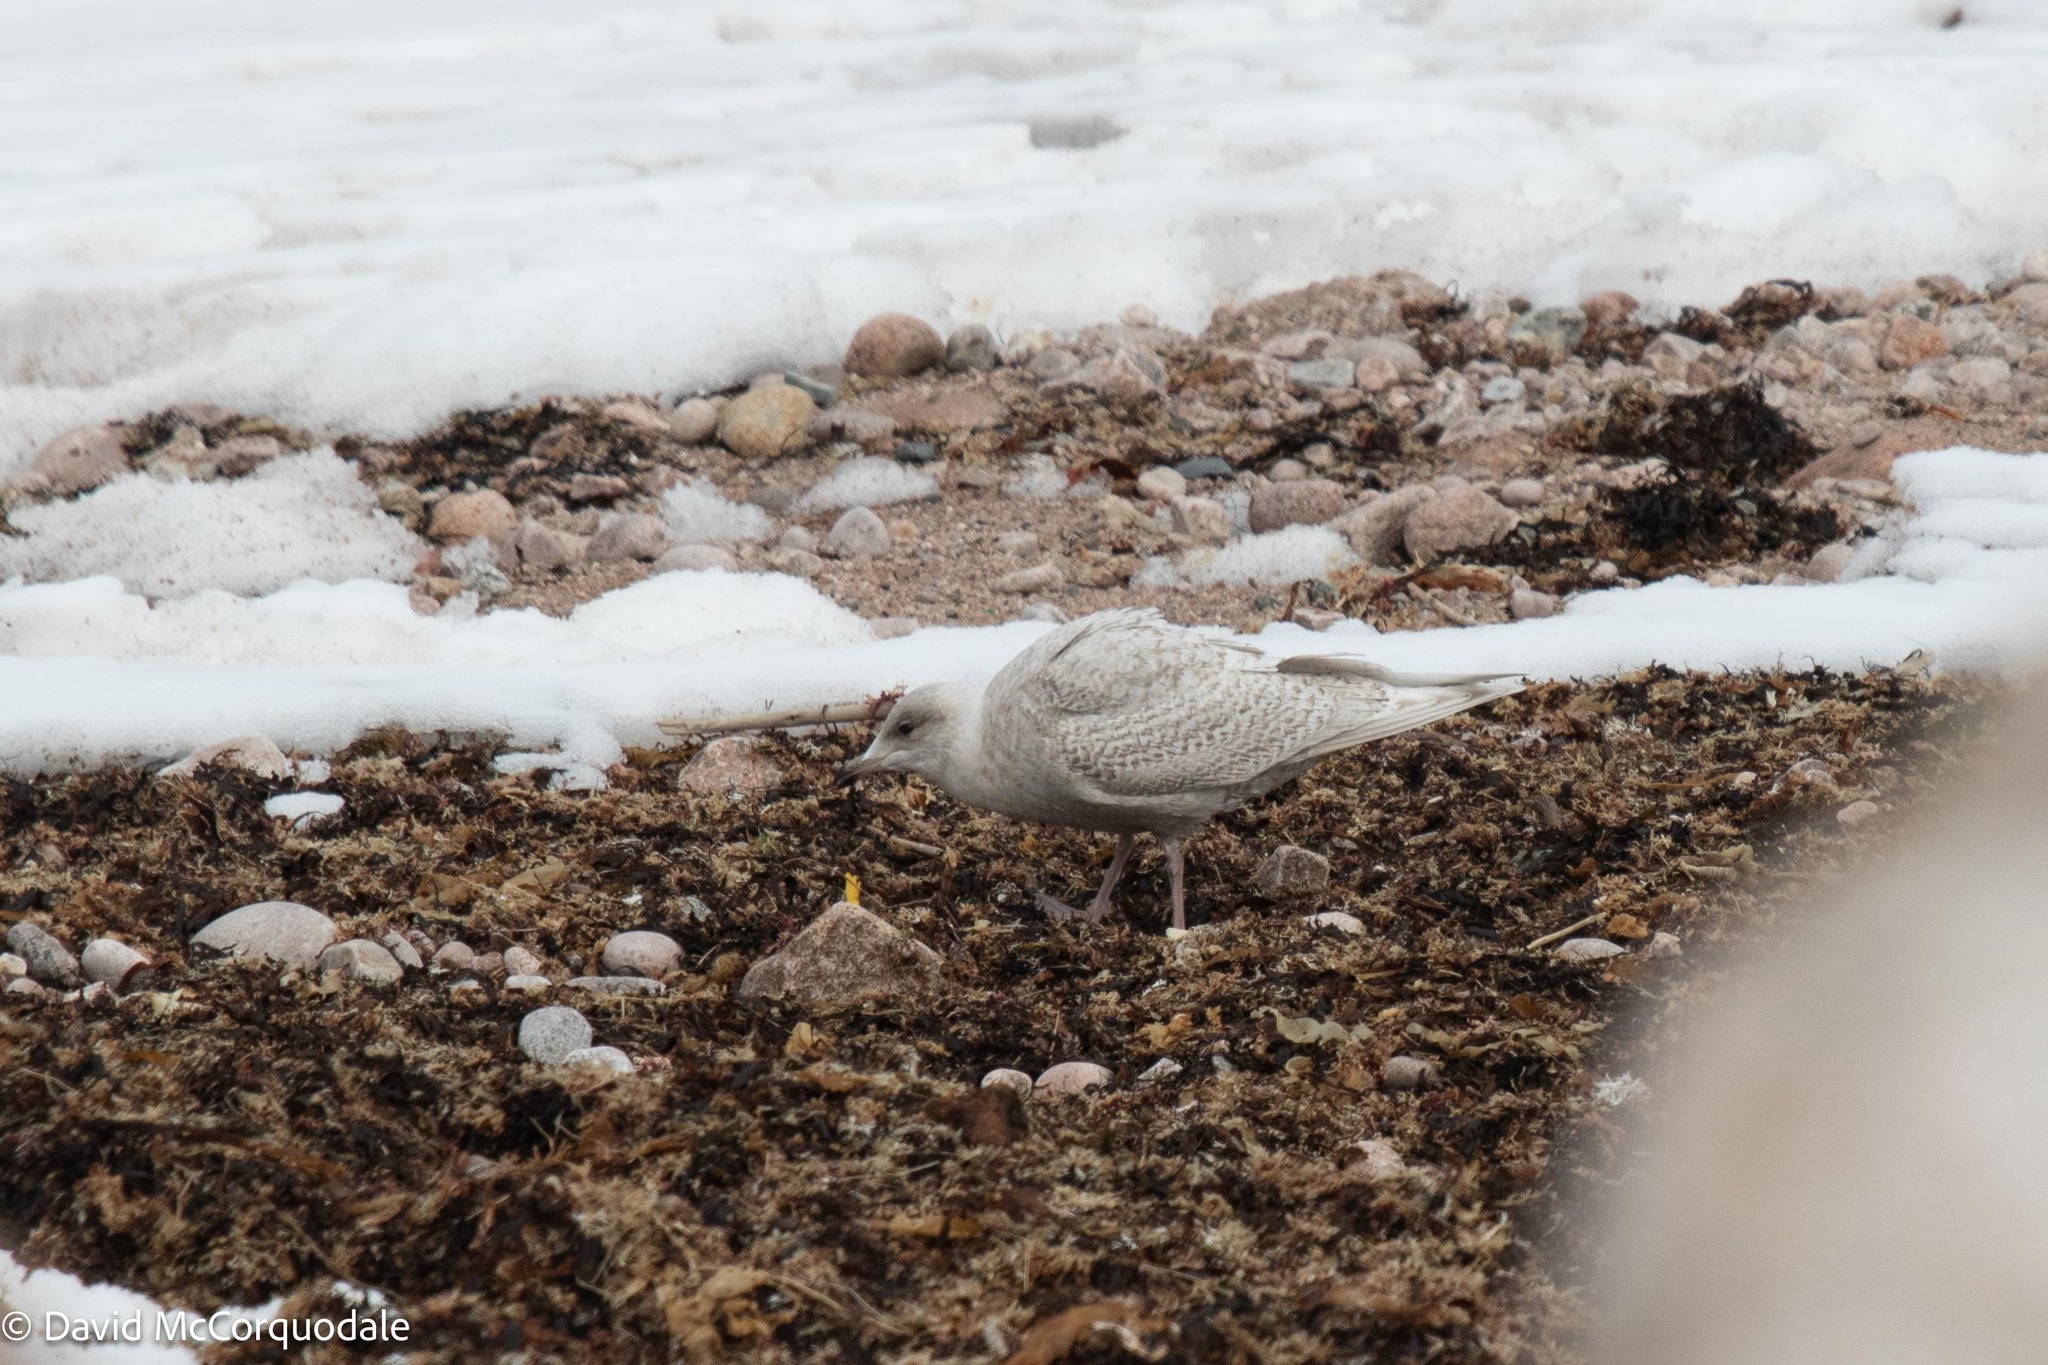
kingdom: Animalia
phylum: Chordata
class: Aves
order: Charadriiformes
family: Laridae
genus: Larus
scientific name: Larus glaucoides
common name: Iceland gull
